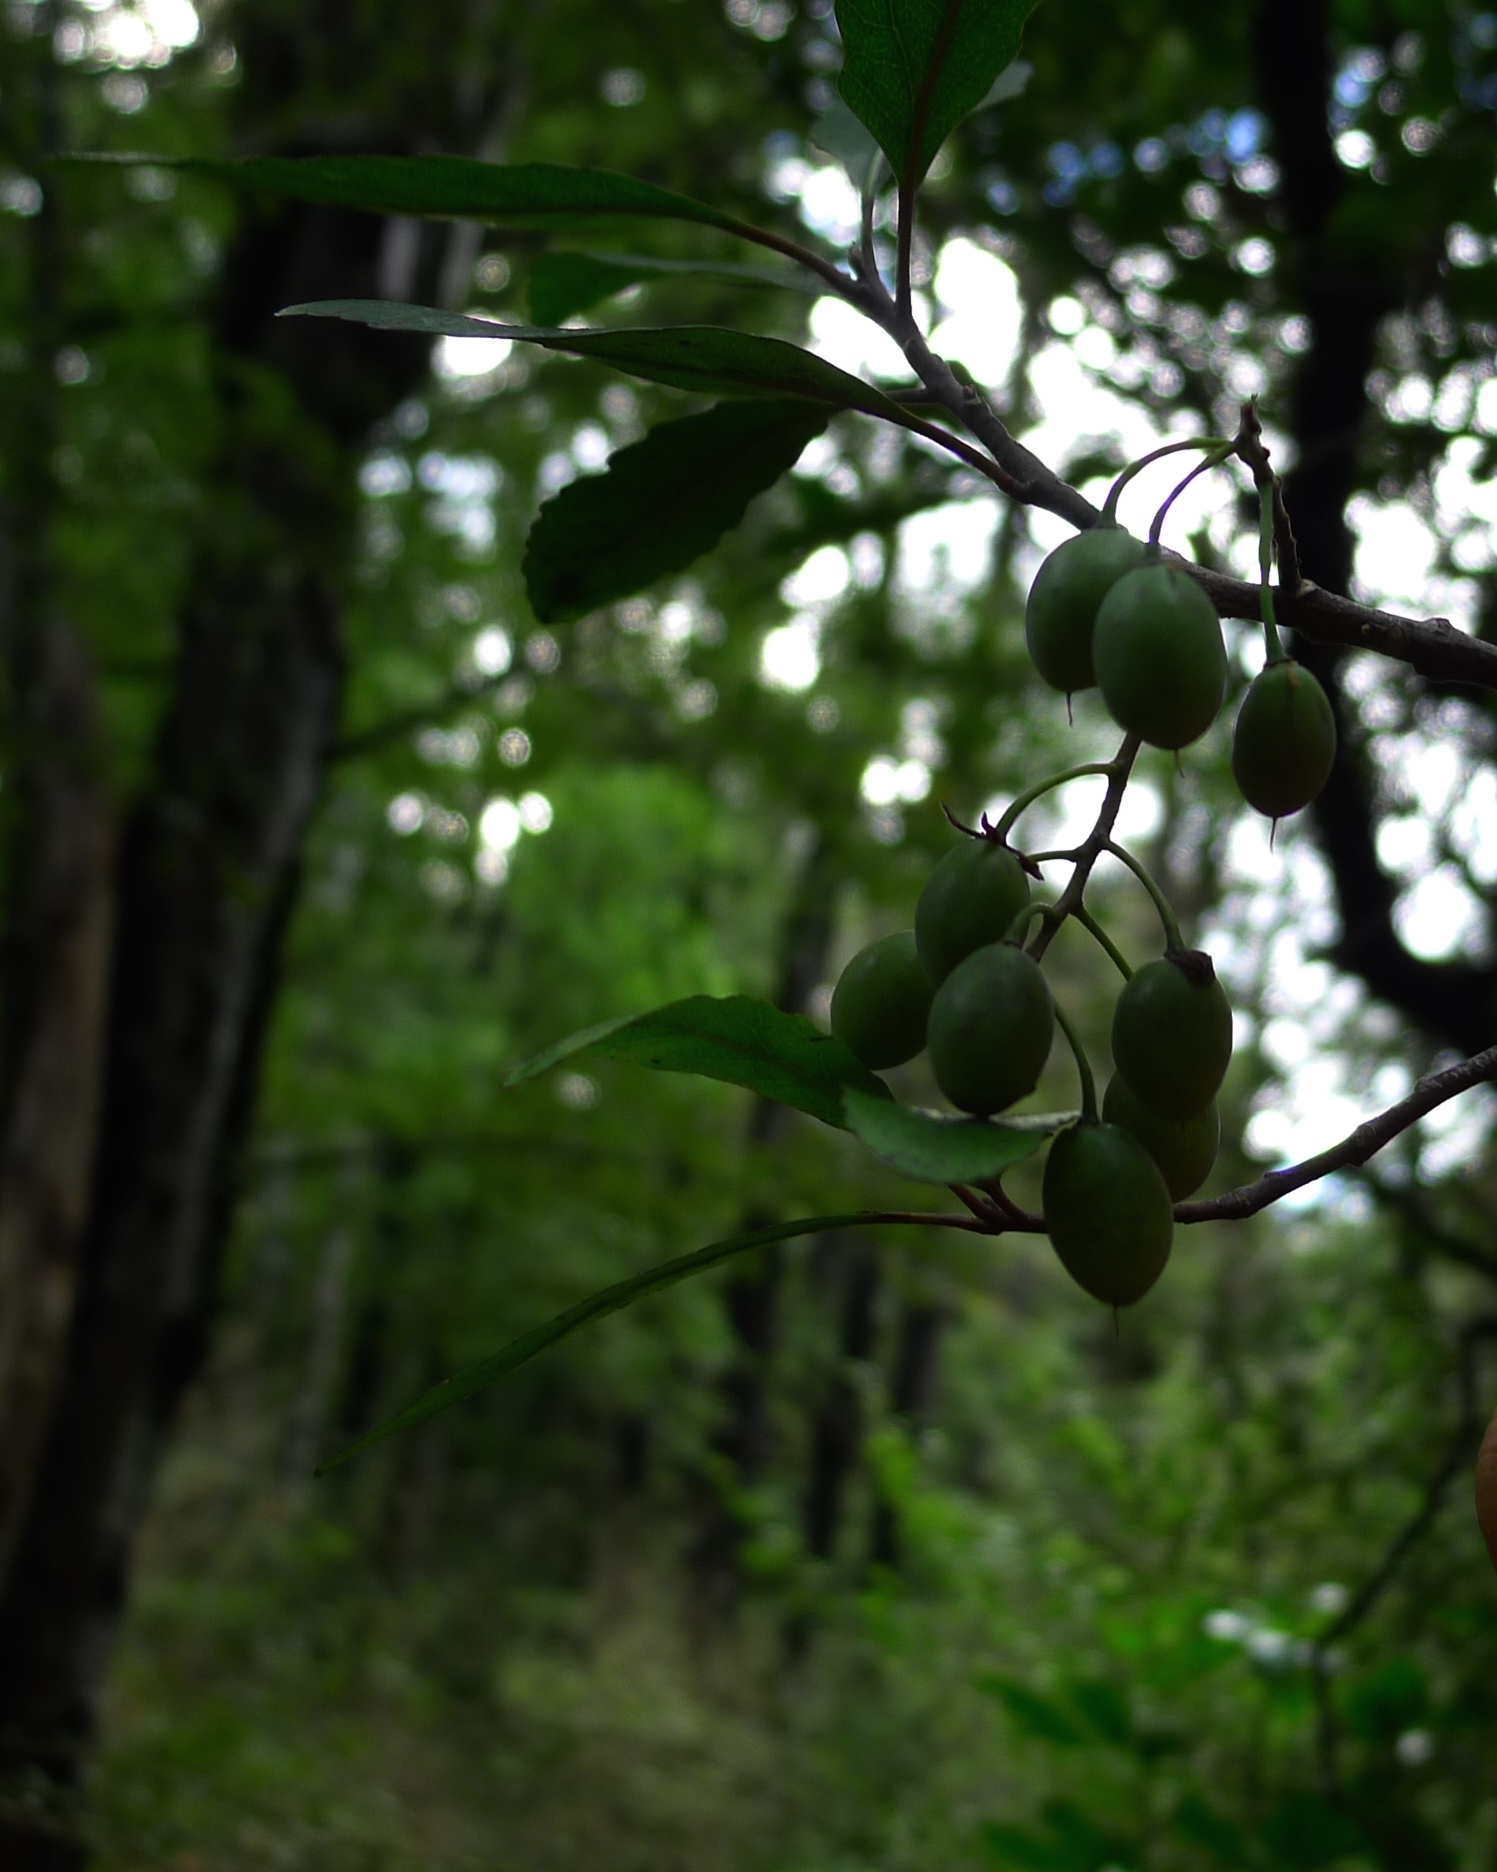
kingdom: Plantae
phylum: Tracheophyta
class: Magnoliopsida
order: Oxalidales
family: Elaeocarpaceae
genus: Elaeocarpus
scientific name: Elaeocarpus hookerianus
